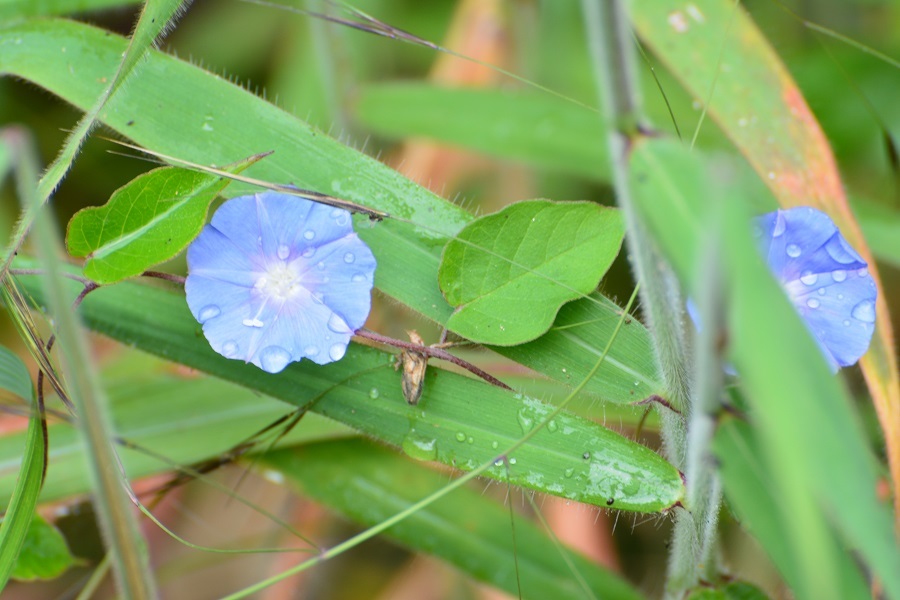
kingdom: Plantae
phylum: Tracheophyta
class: Magnoliopsida
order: Solanales
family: Convolvulaceae
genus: Jacquemontia
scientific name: Jacquemontia pentanthos
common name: Skyblue clustervine
